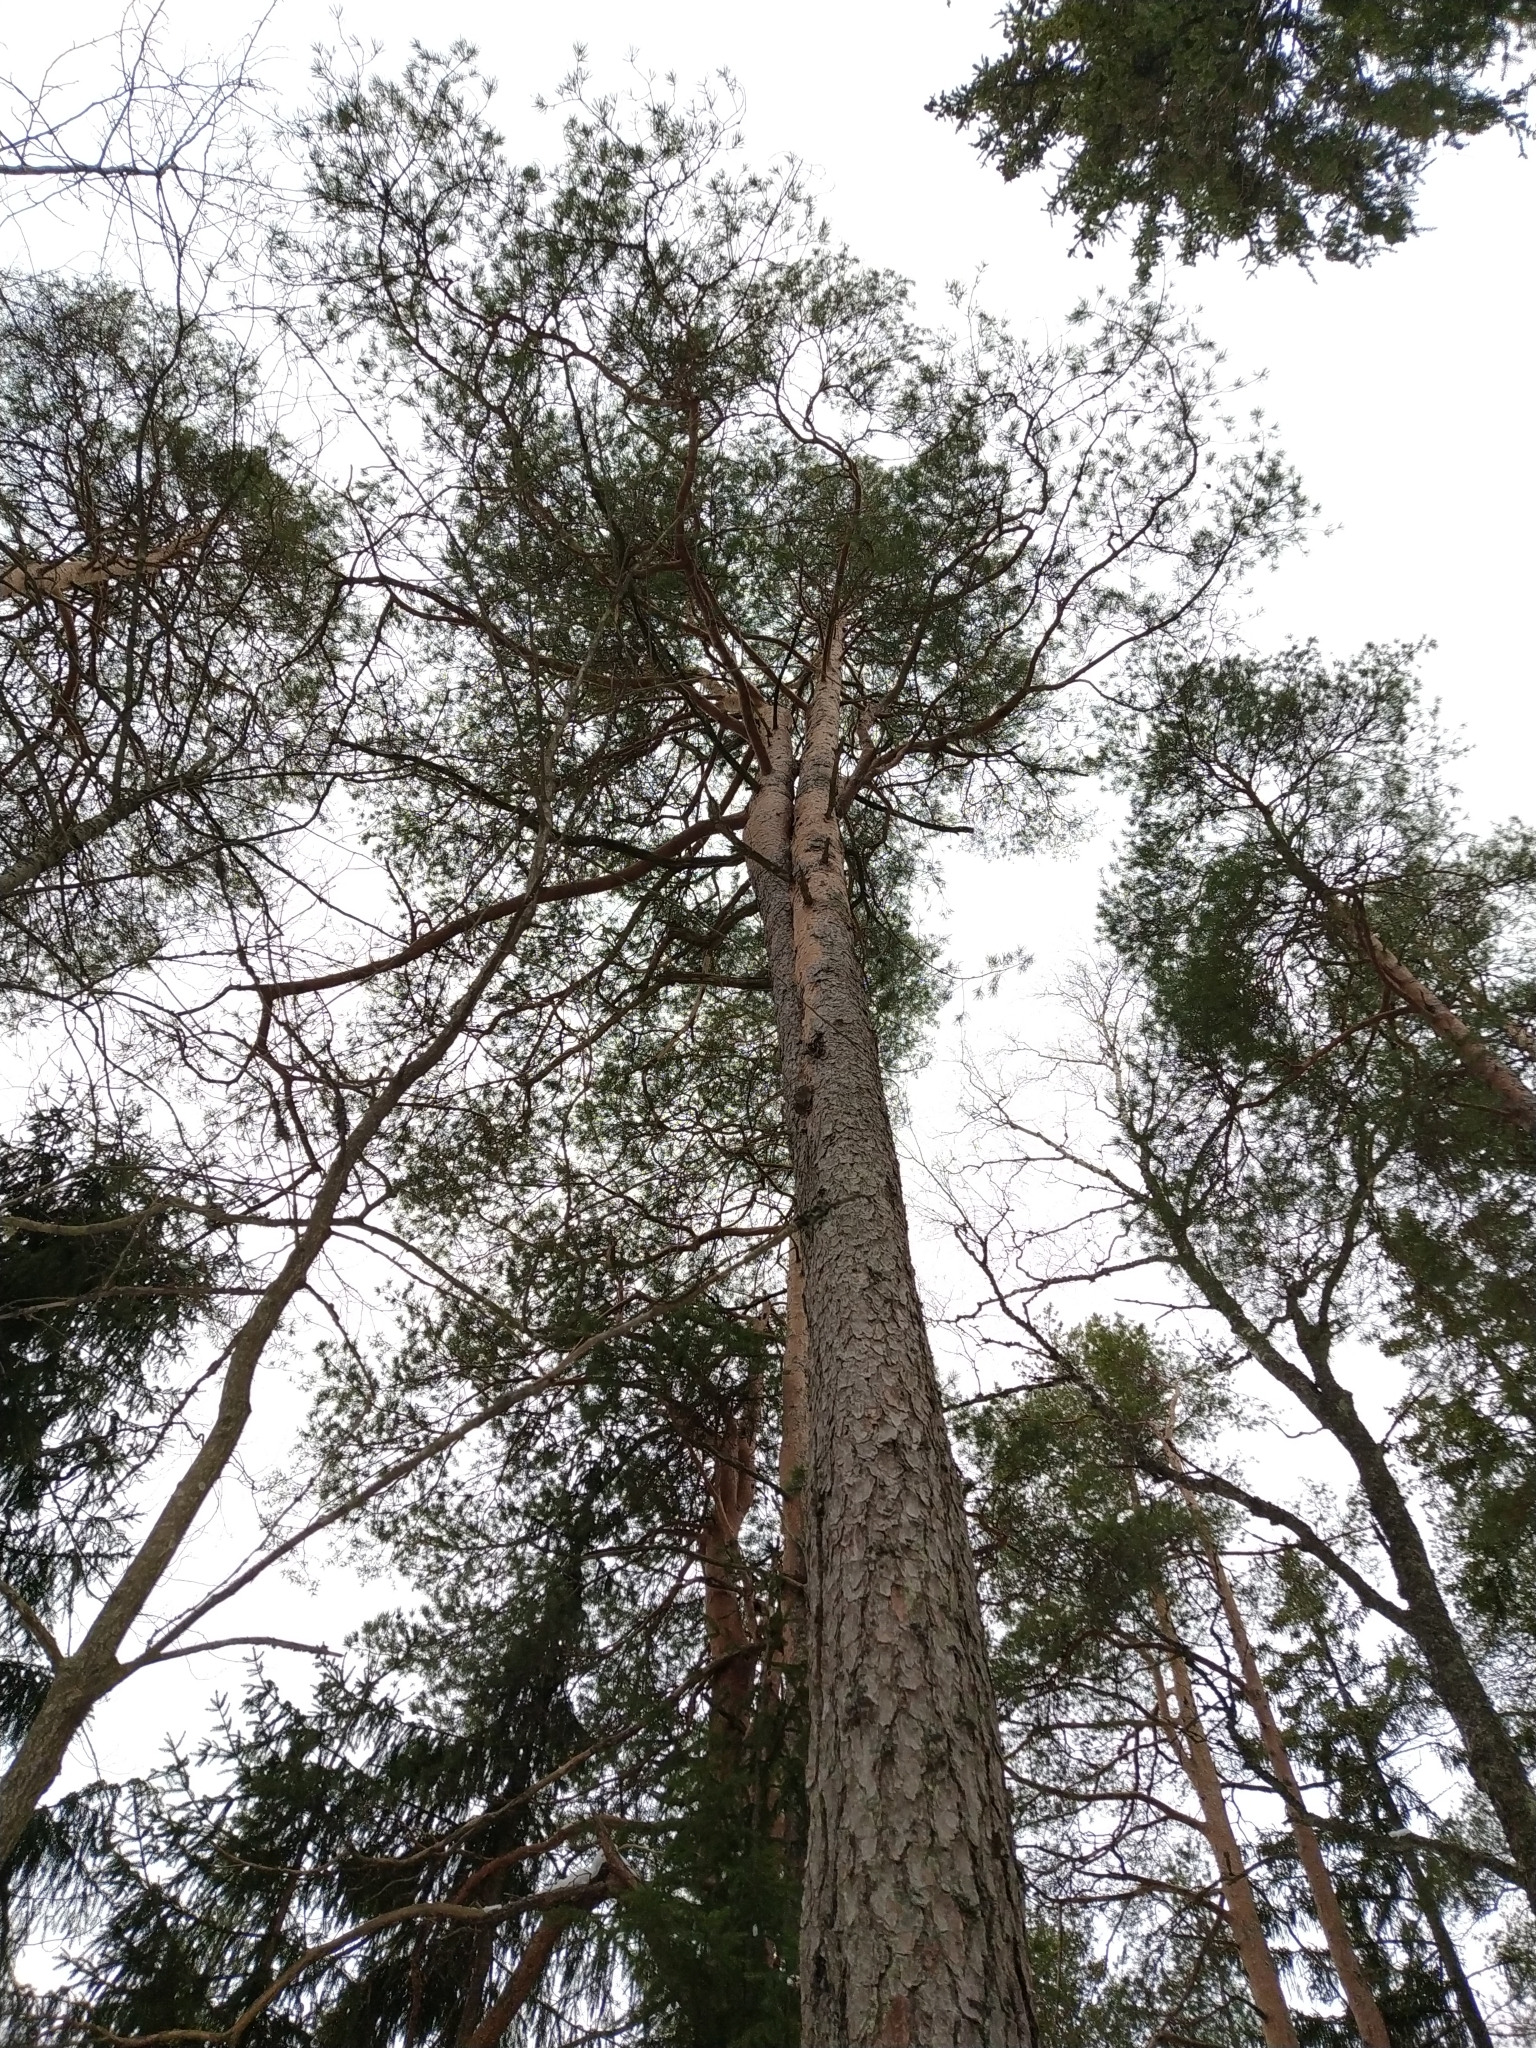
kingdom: Plantae
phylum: Tracheophyta
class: Pinopsida
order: Pinales
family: Pinaceae
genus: Pinus
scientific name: Pinus sylvestris
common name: Scots pine
